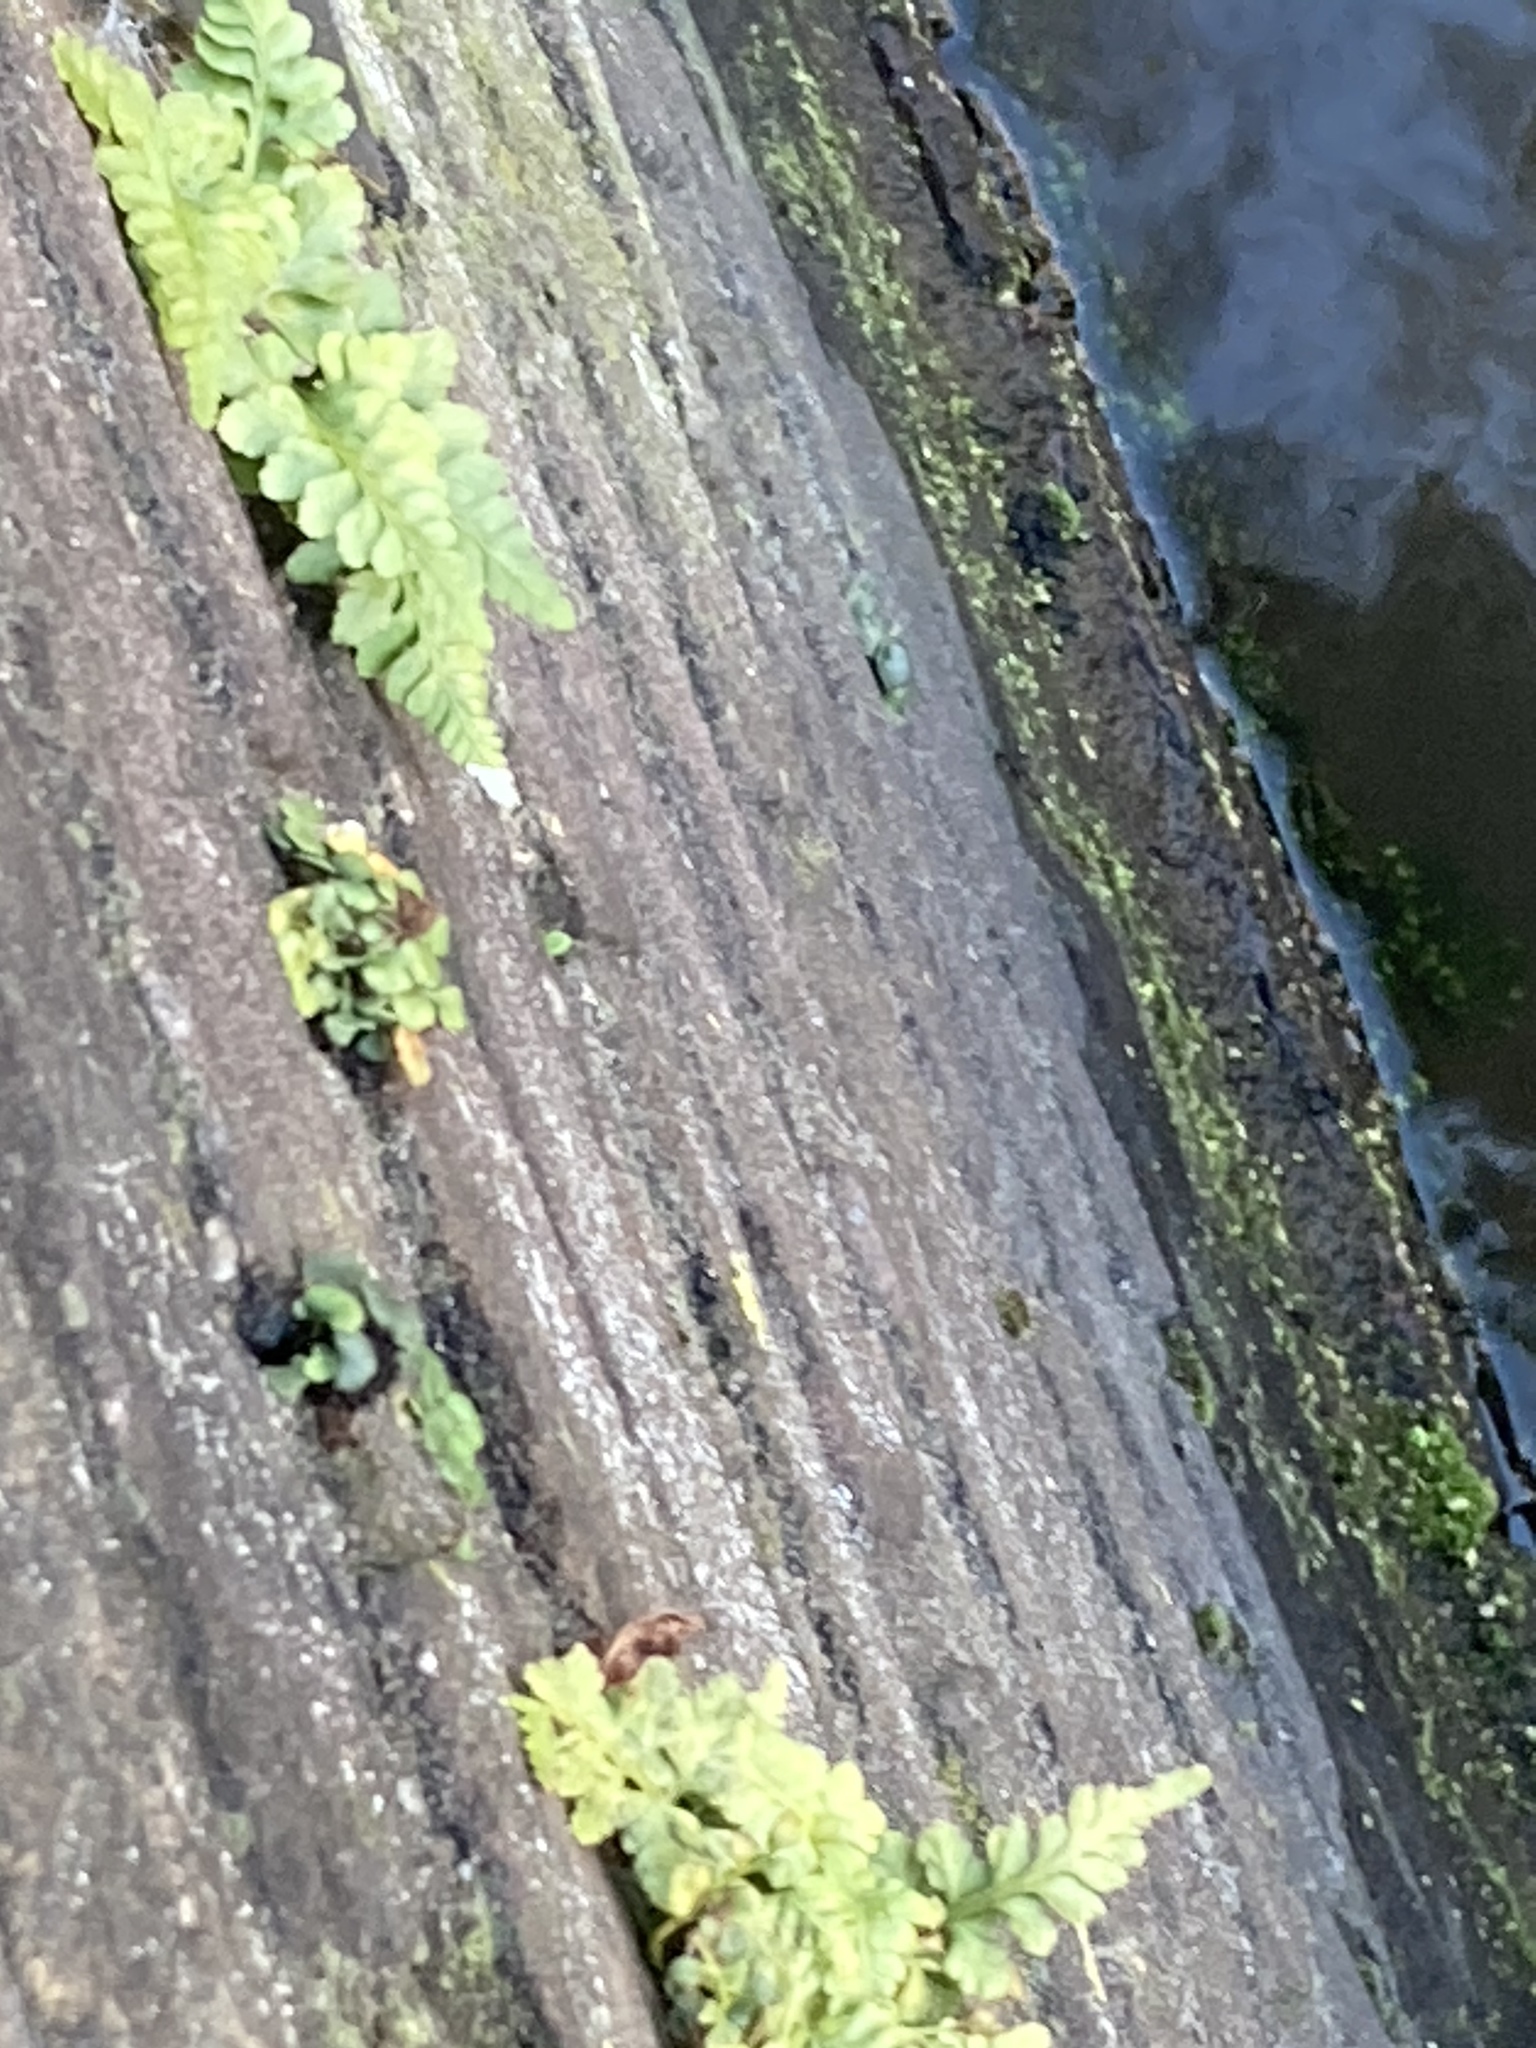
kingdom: Plantae
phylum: Tracheophyta
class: Polypodiopsida
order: Polypodiales
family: Aspleniaceae
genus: Asplenium
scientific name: Asplenium adiantum-nigrum
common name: Black spleenwort
